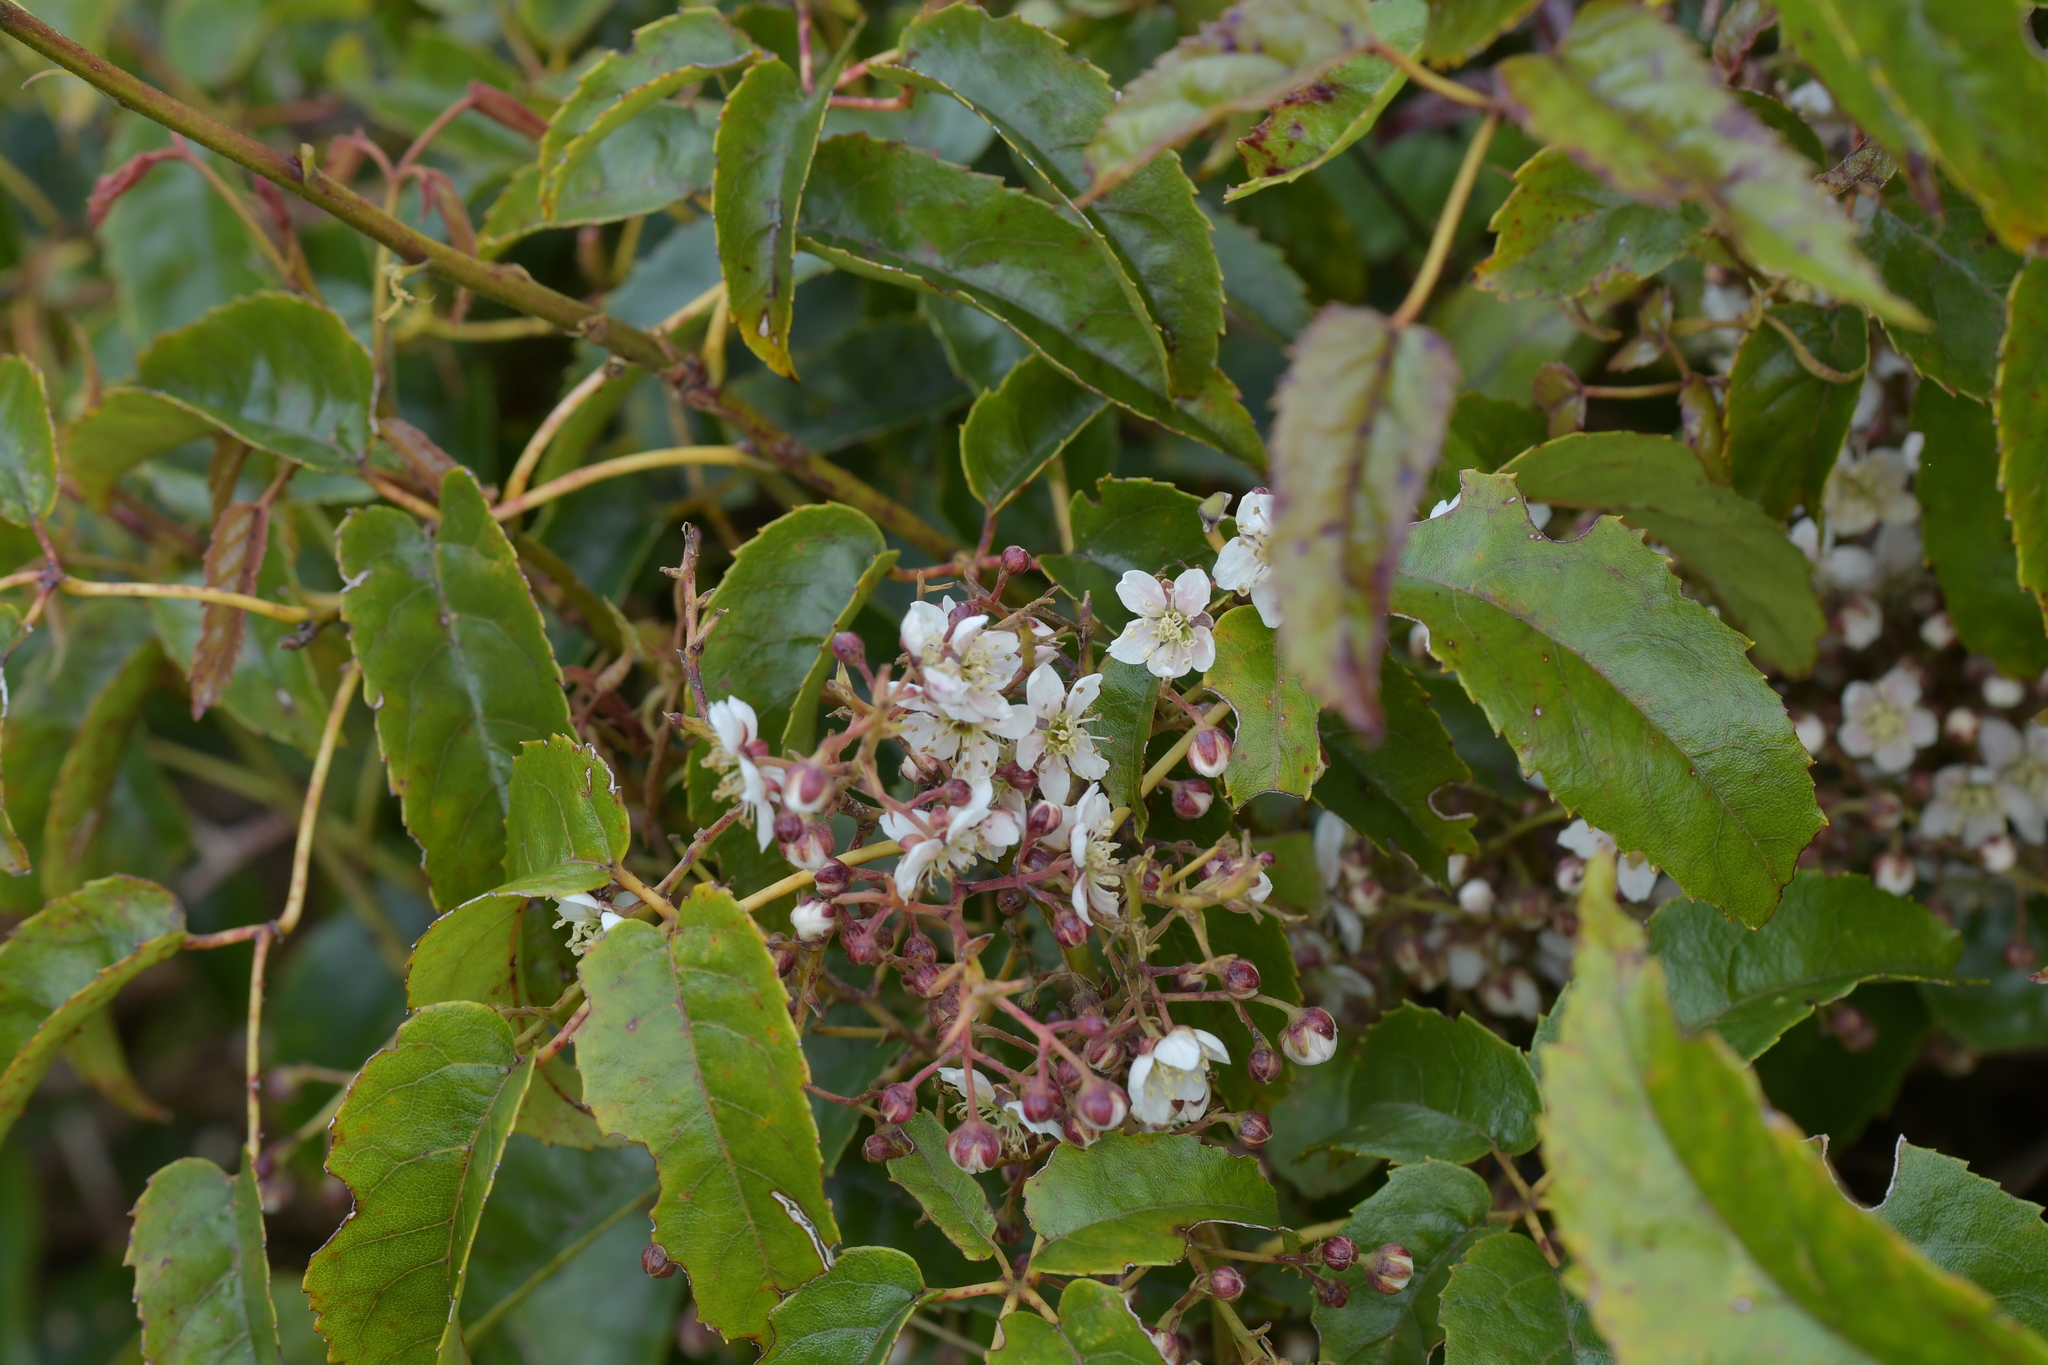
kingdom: Plantae
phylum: Tracheophyta
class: Magnoliopsida
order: Rosales
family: Rosaceae
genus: Rubus
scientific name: Rubus cissoides
